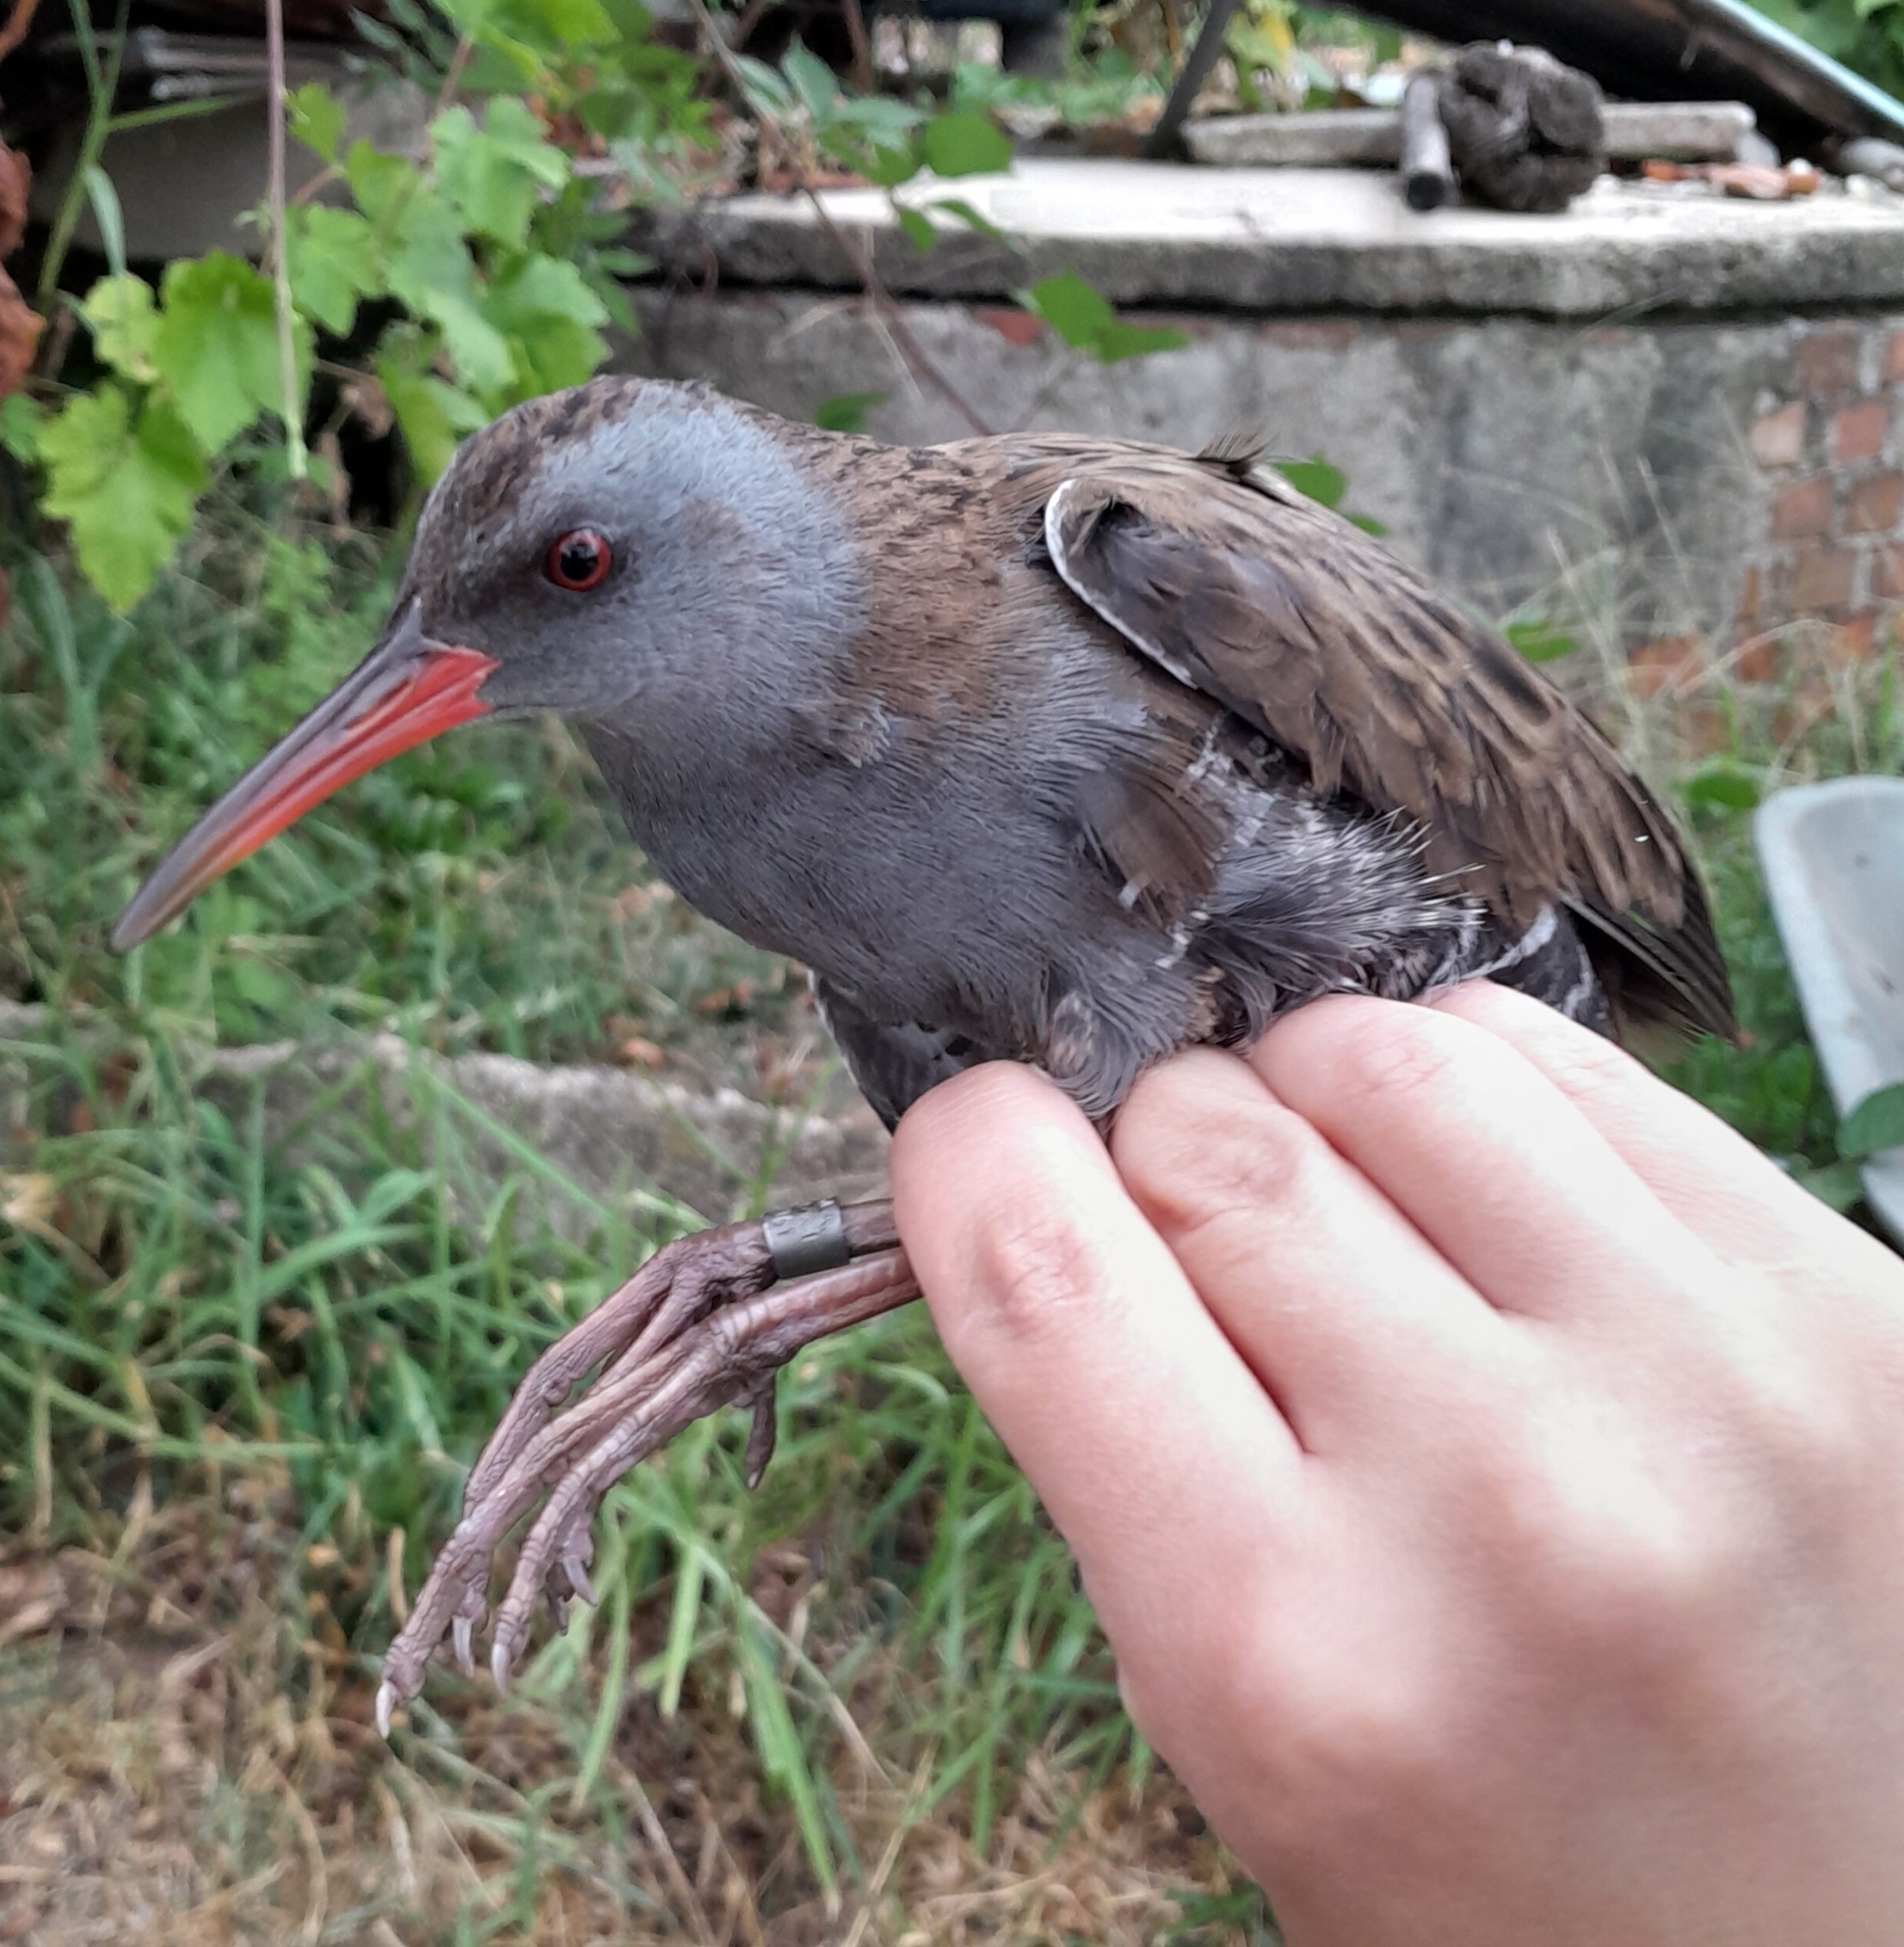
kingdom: Animalia
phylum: Chordata
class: Aves
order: Gruiformes
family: Rallidae
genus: Rallus
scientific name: Rallus aquaticus
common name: Water rail
